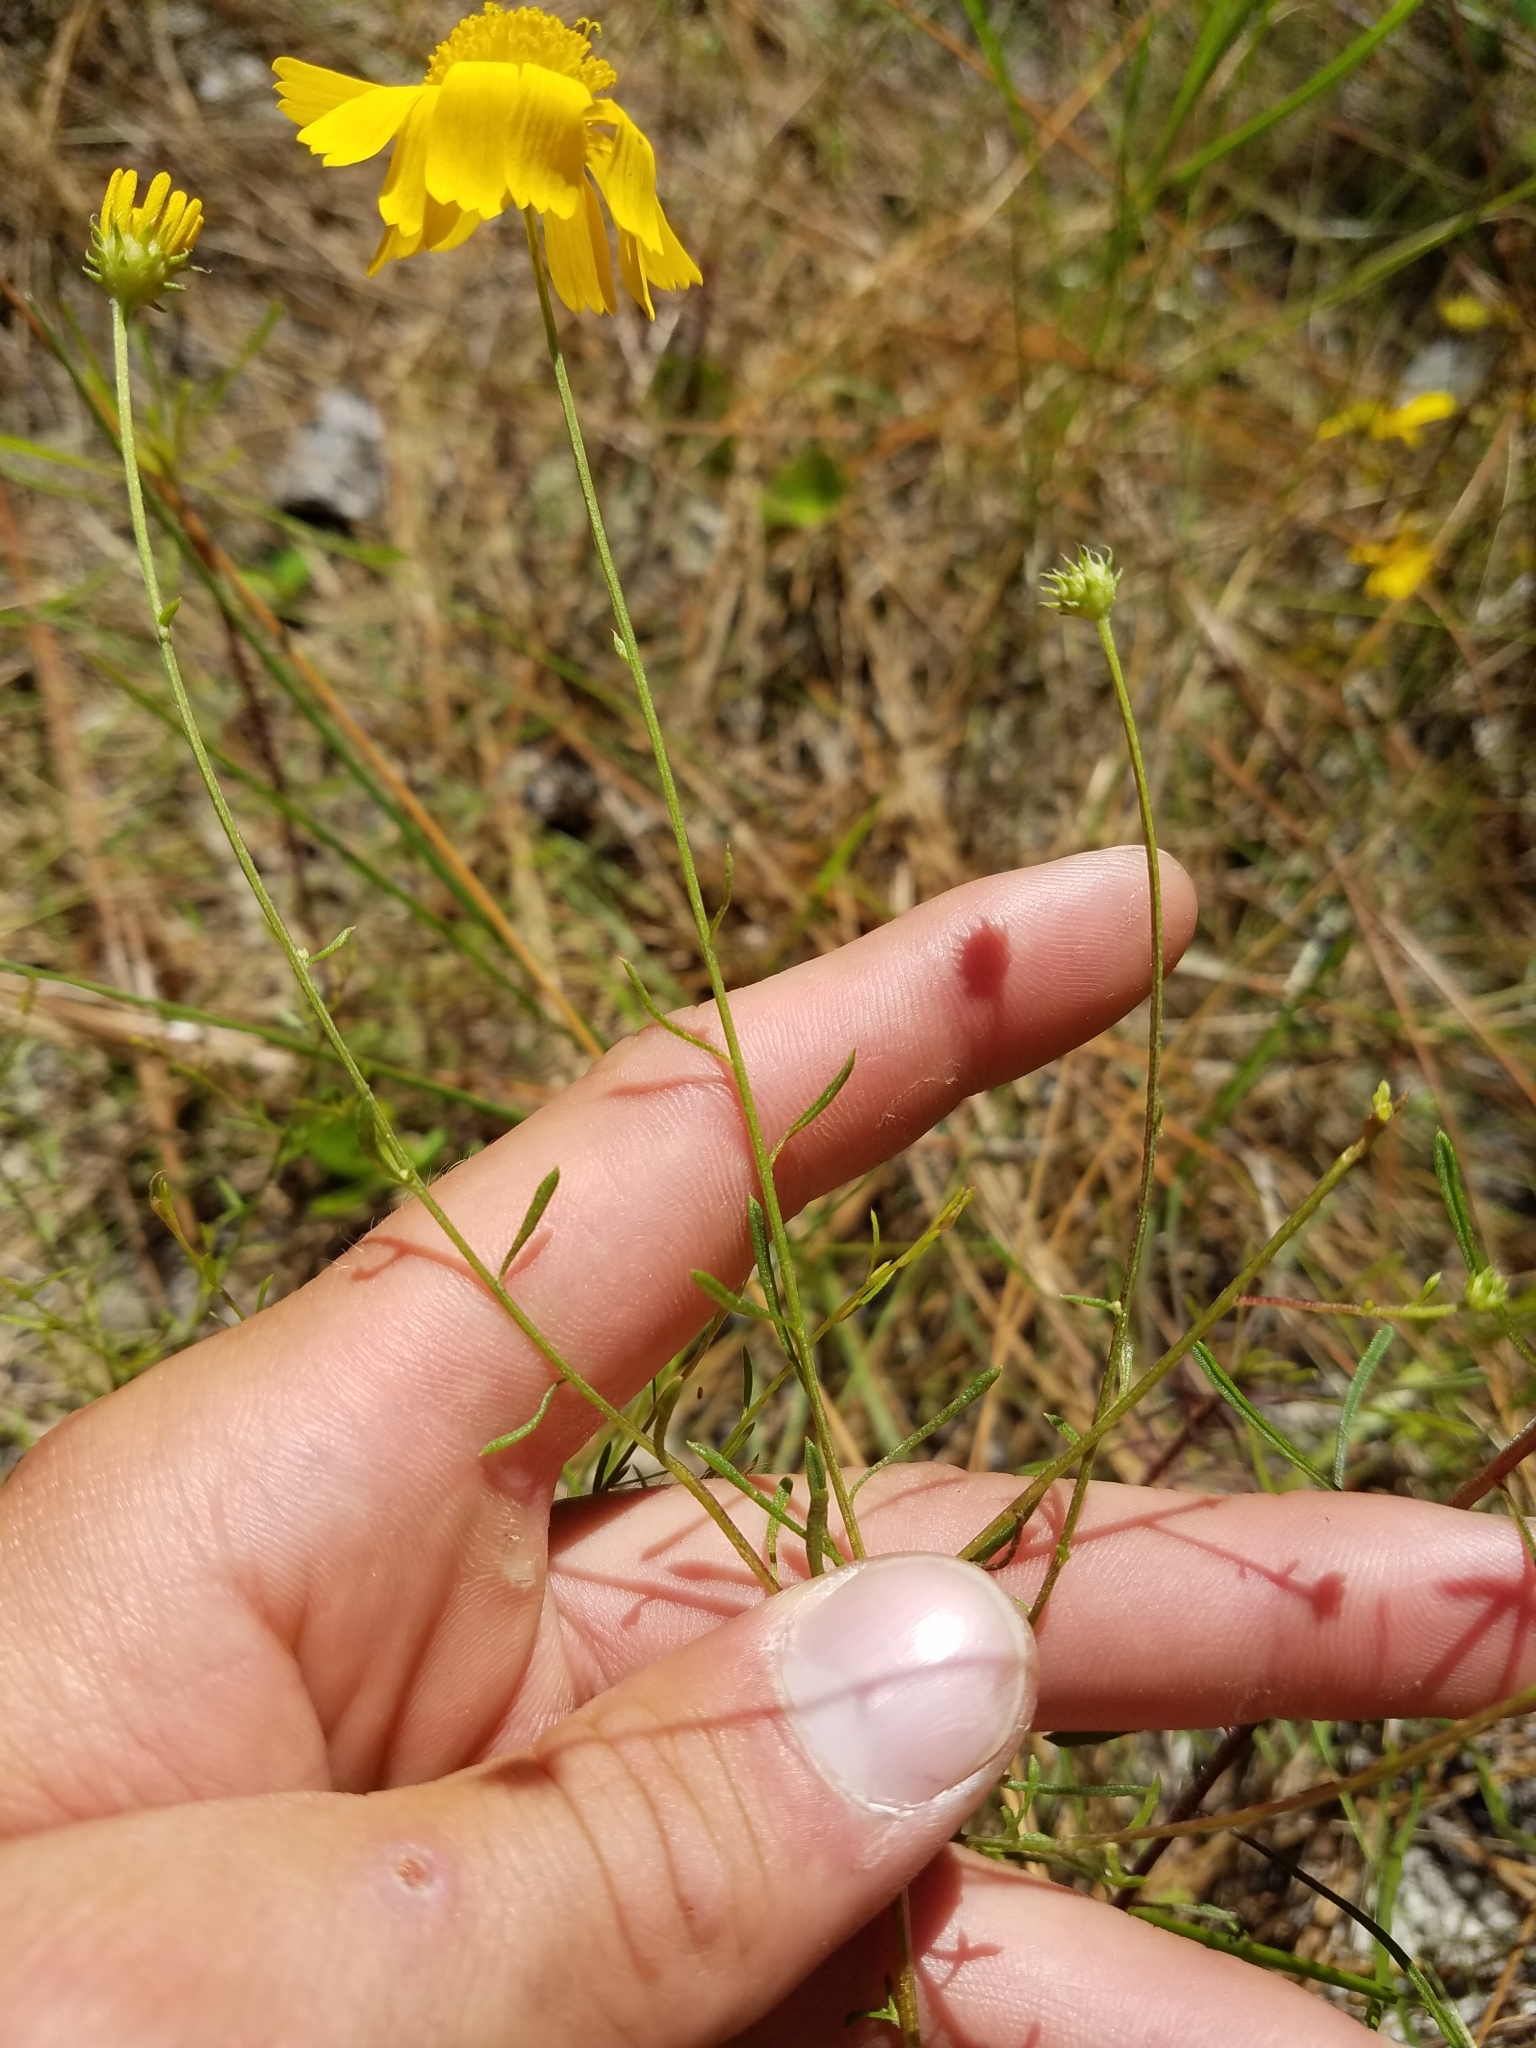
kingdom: Plantae
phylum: Tracheophyta
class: Magnoliopsida
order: Asterales
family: Asteraceae
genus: Balduina
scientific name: Balduina angustifolia
